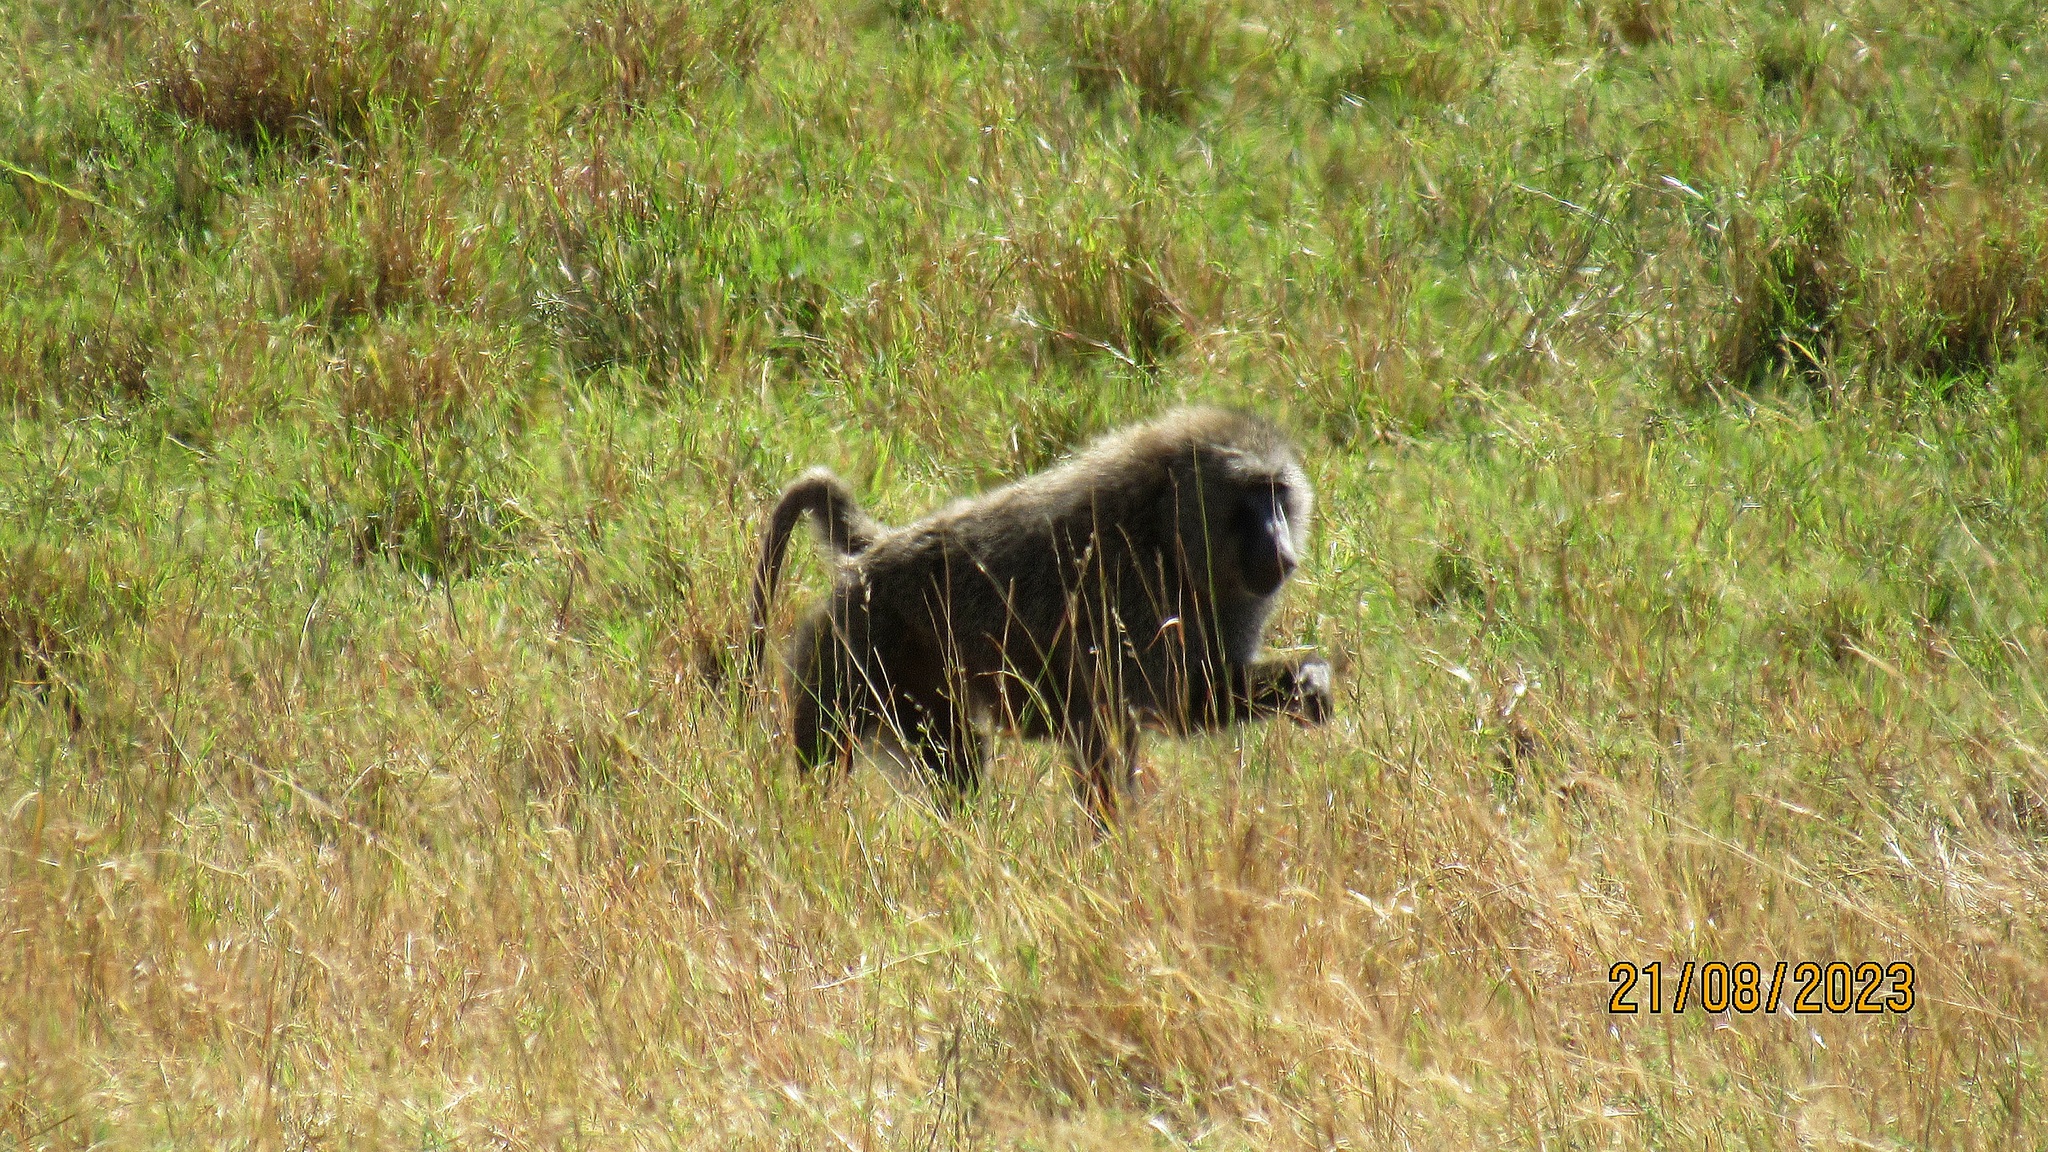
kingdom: Animalia
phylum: Chordata
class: Mammalia
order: Primates
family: Cercopithecidae
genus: Papio
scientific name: Papio anubis
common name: Olive baboon
